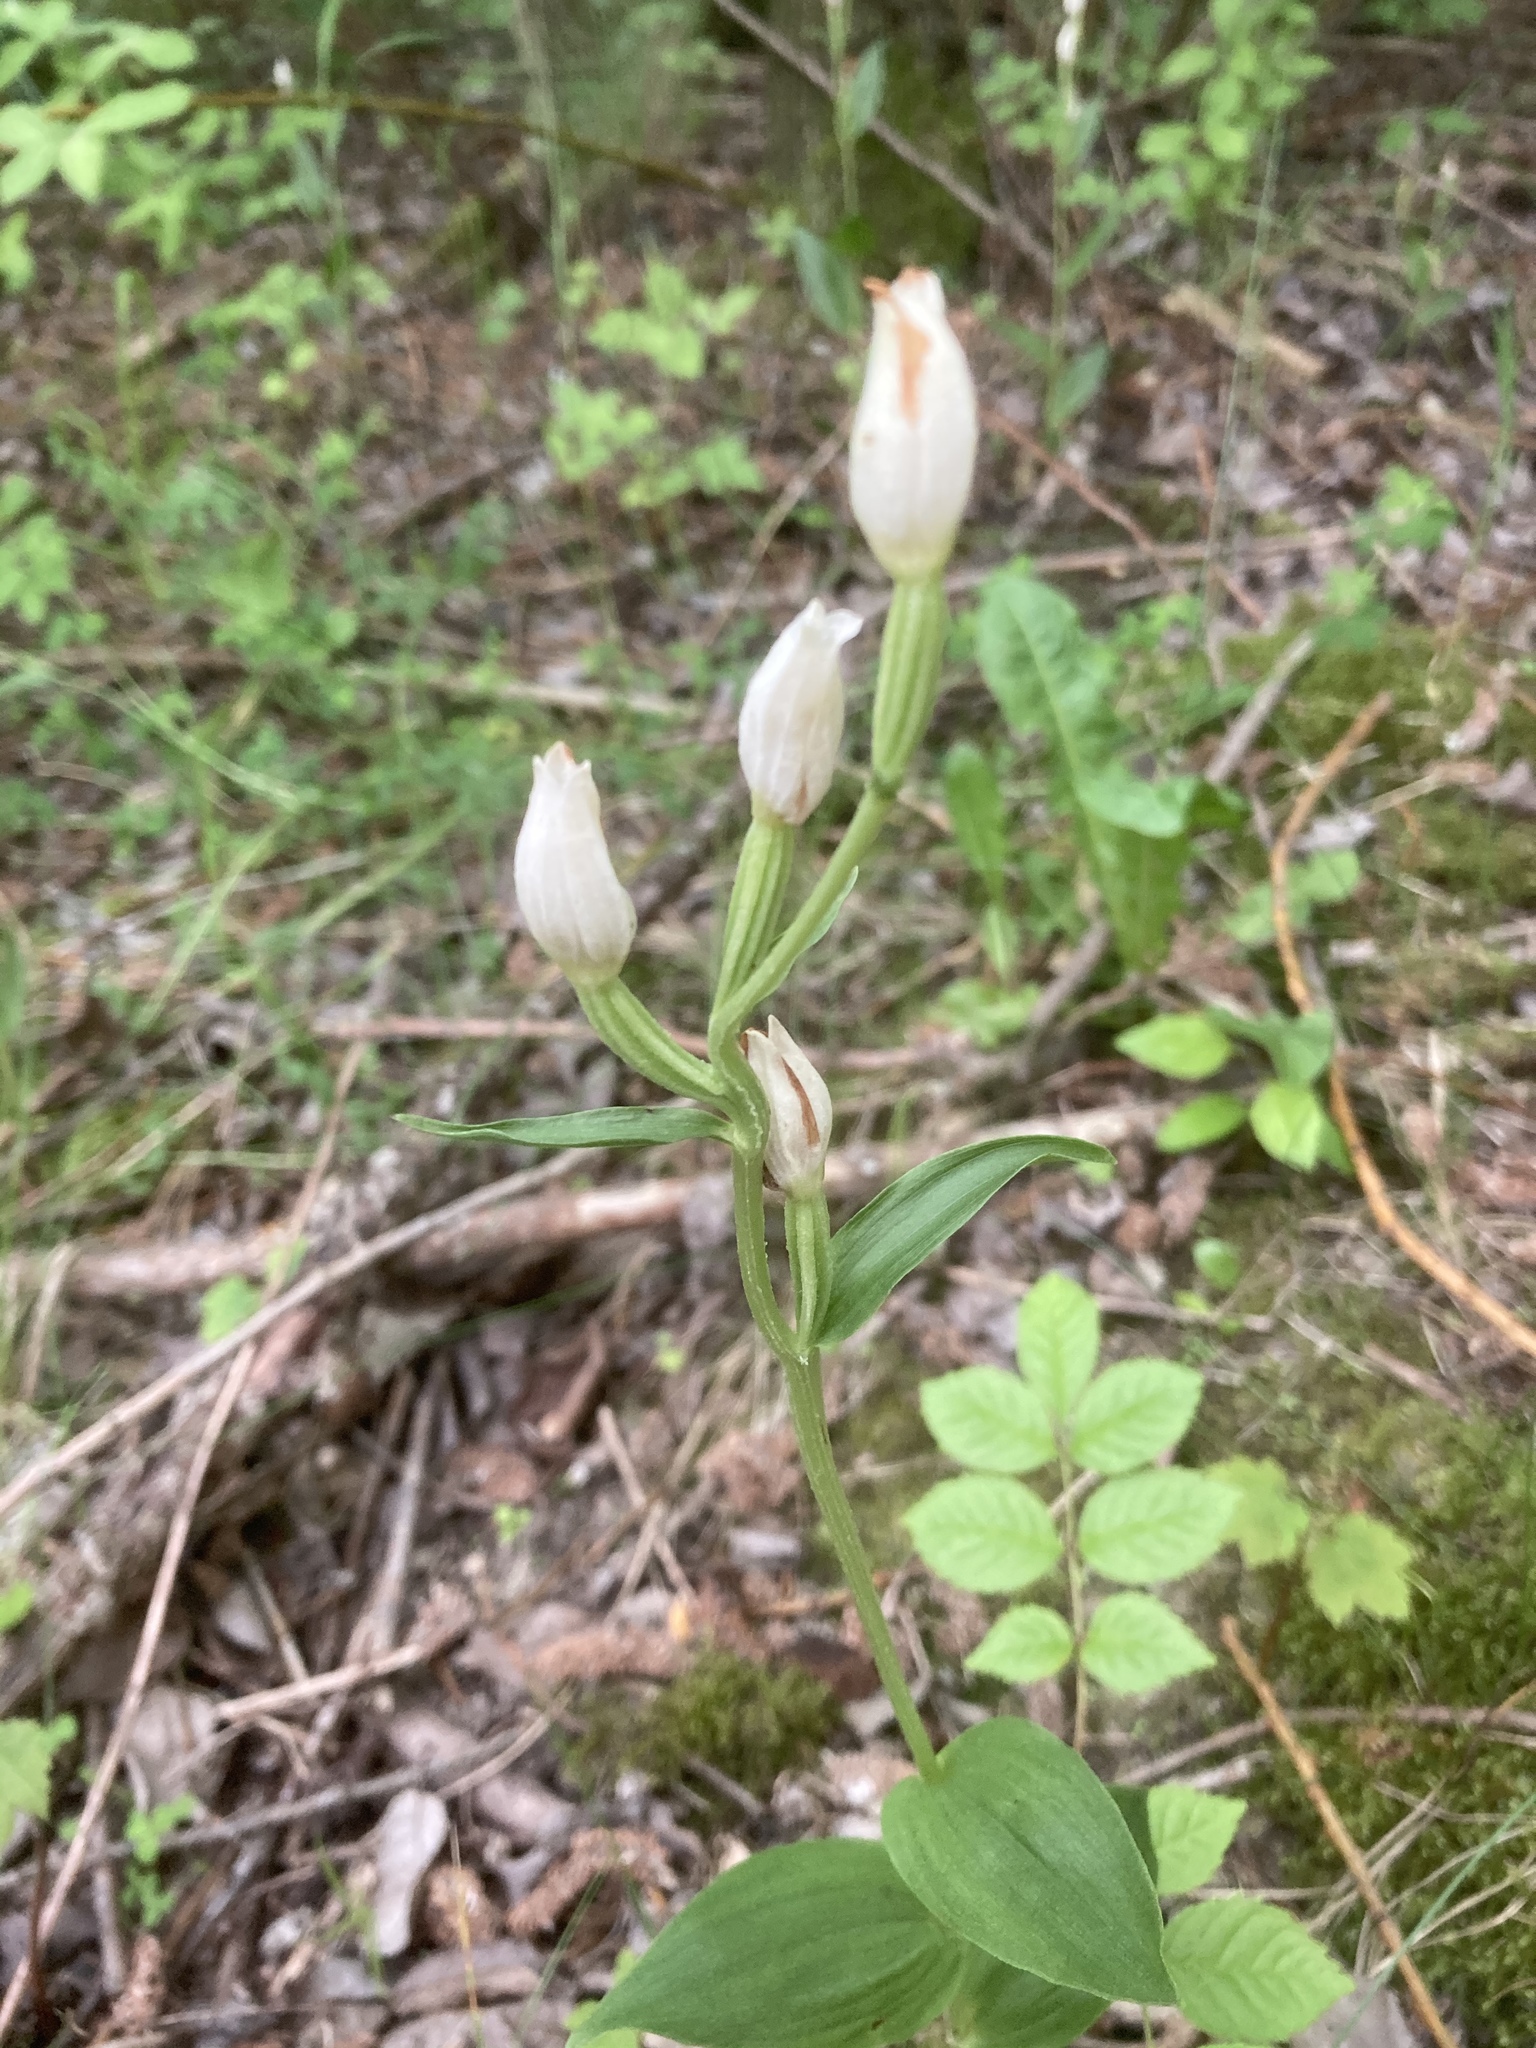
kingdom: Plantae
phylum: Tracheophyta
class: Liliopsida
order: Asparagales
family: Orchidaceae
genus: Cephalanthera
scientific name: Cephalanthera damasonium
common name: White helleborine
